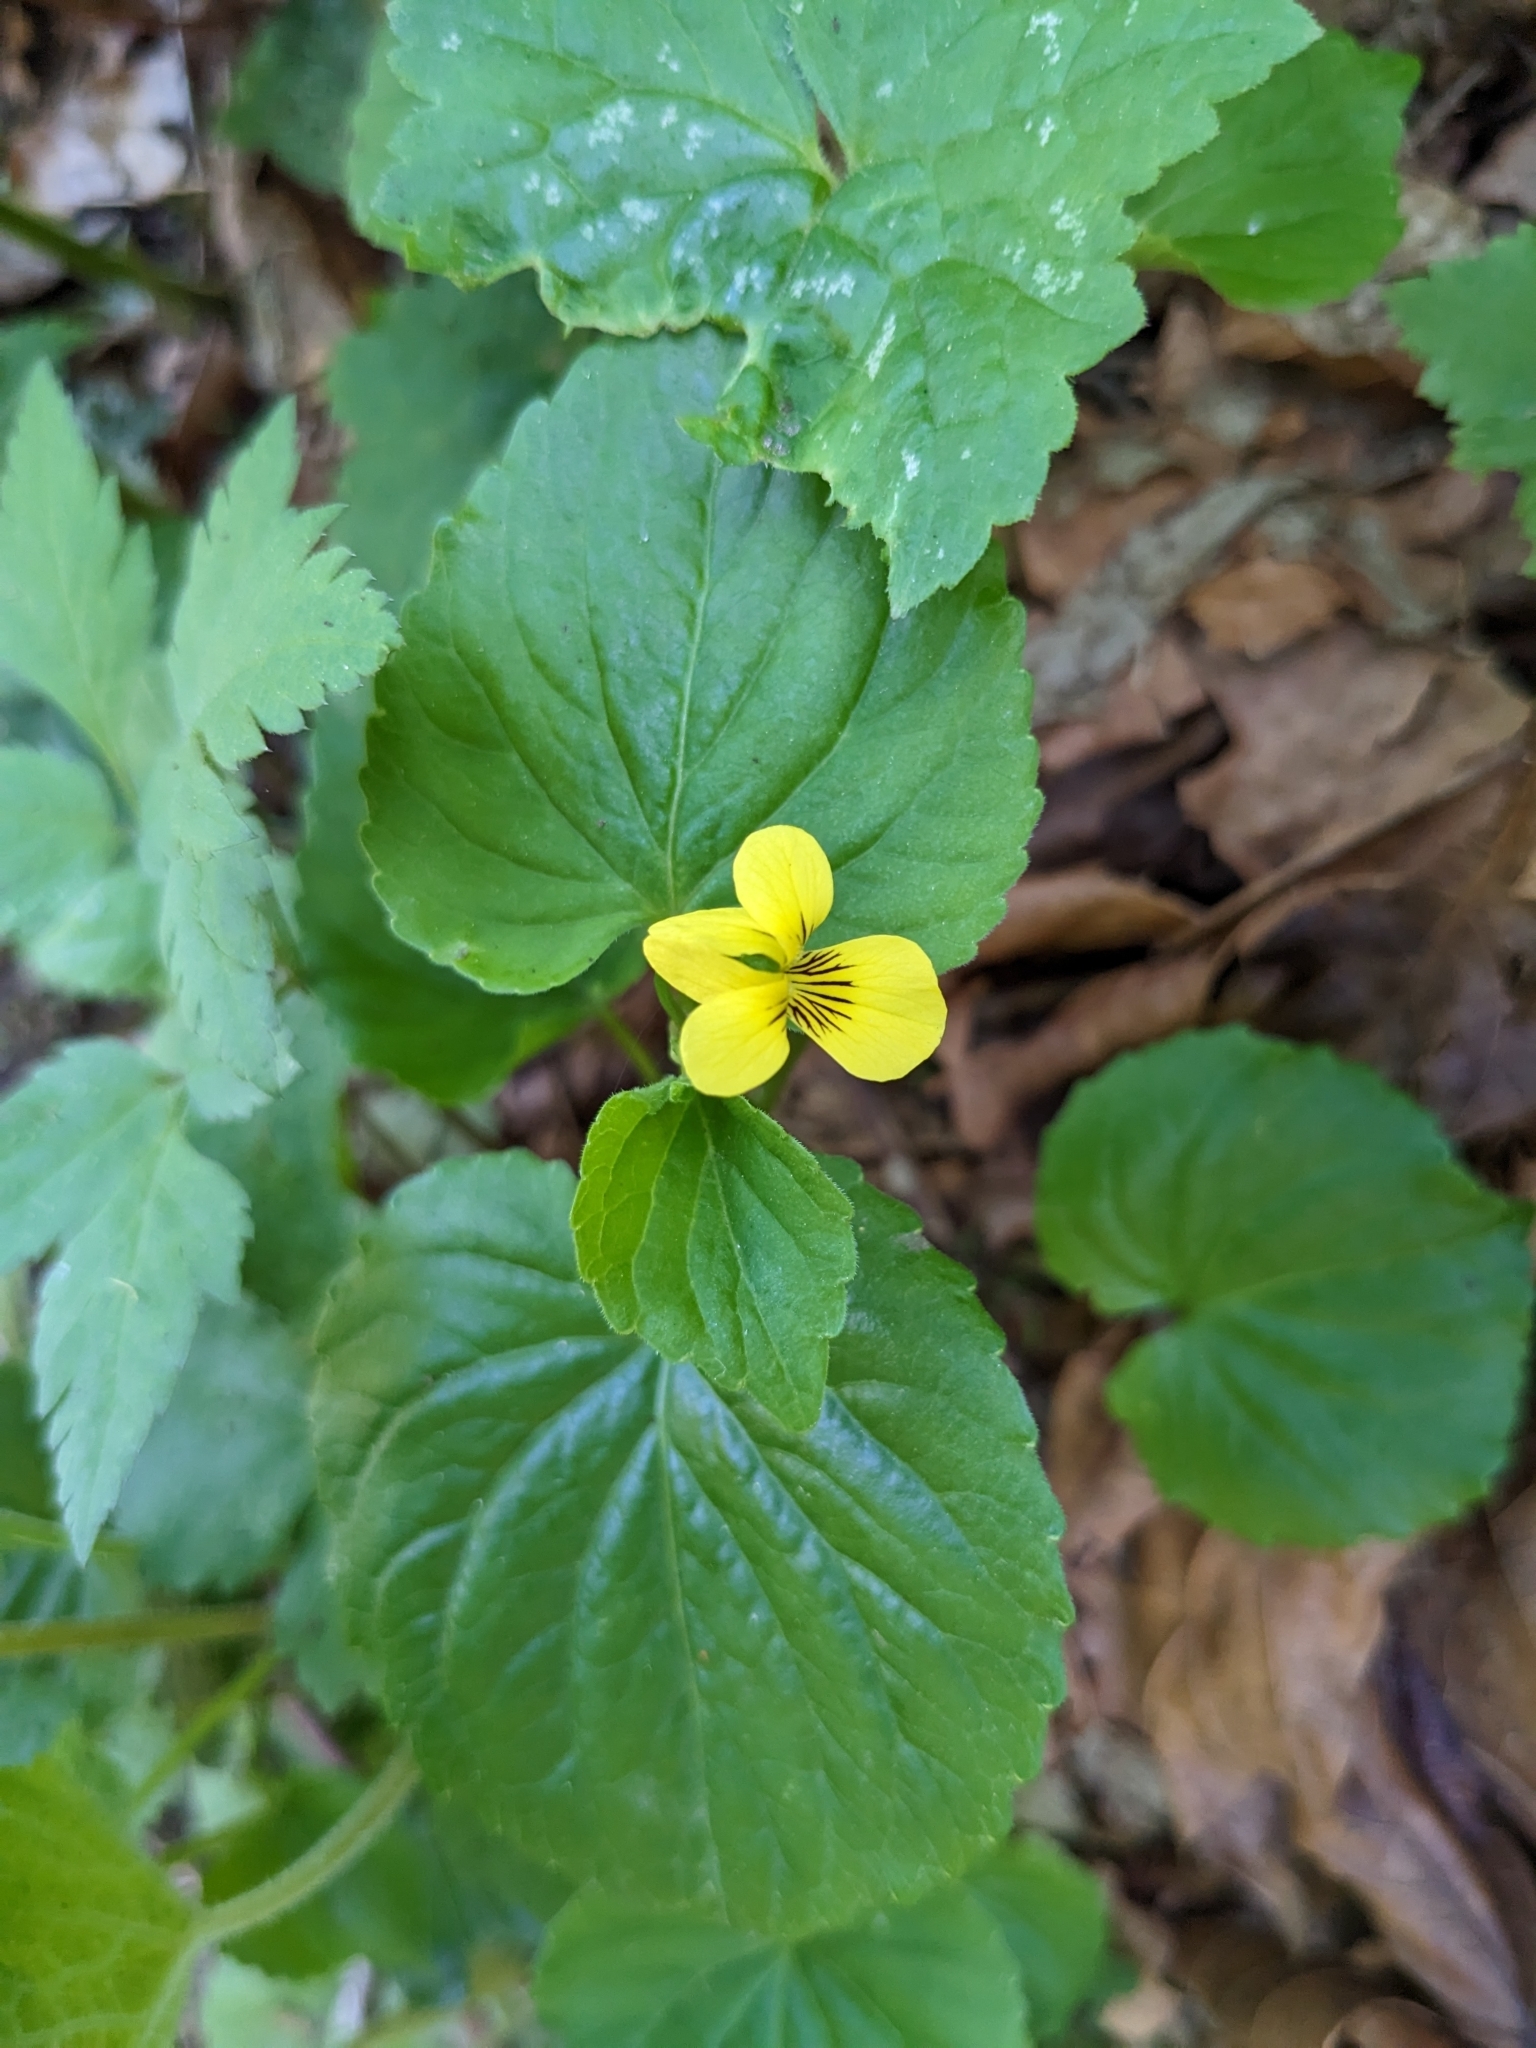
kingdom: Plantae
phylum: Tracheophyta
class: Magnoliopsida
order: Malpighiales
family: Violaceae
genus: Viola
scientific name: Viola glabella
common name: Stream violet
